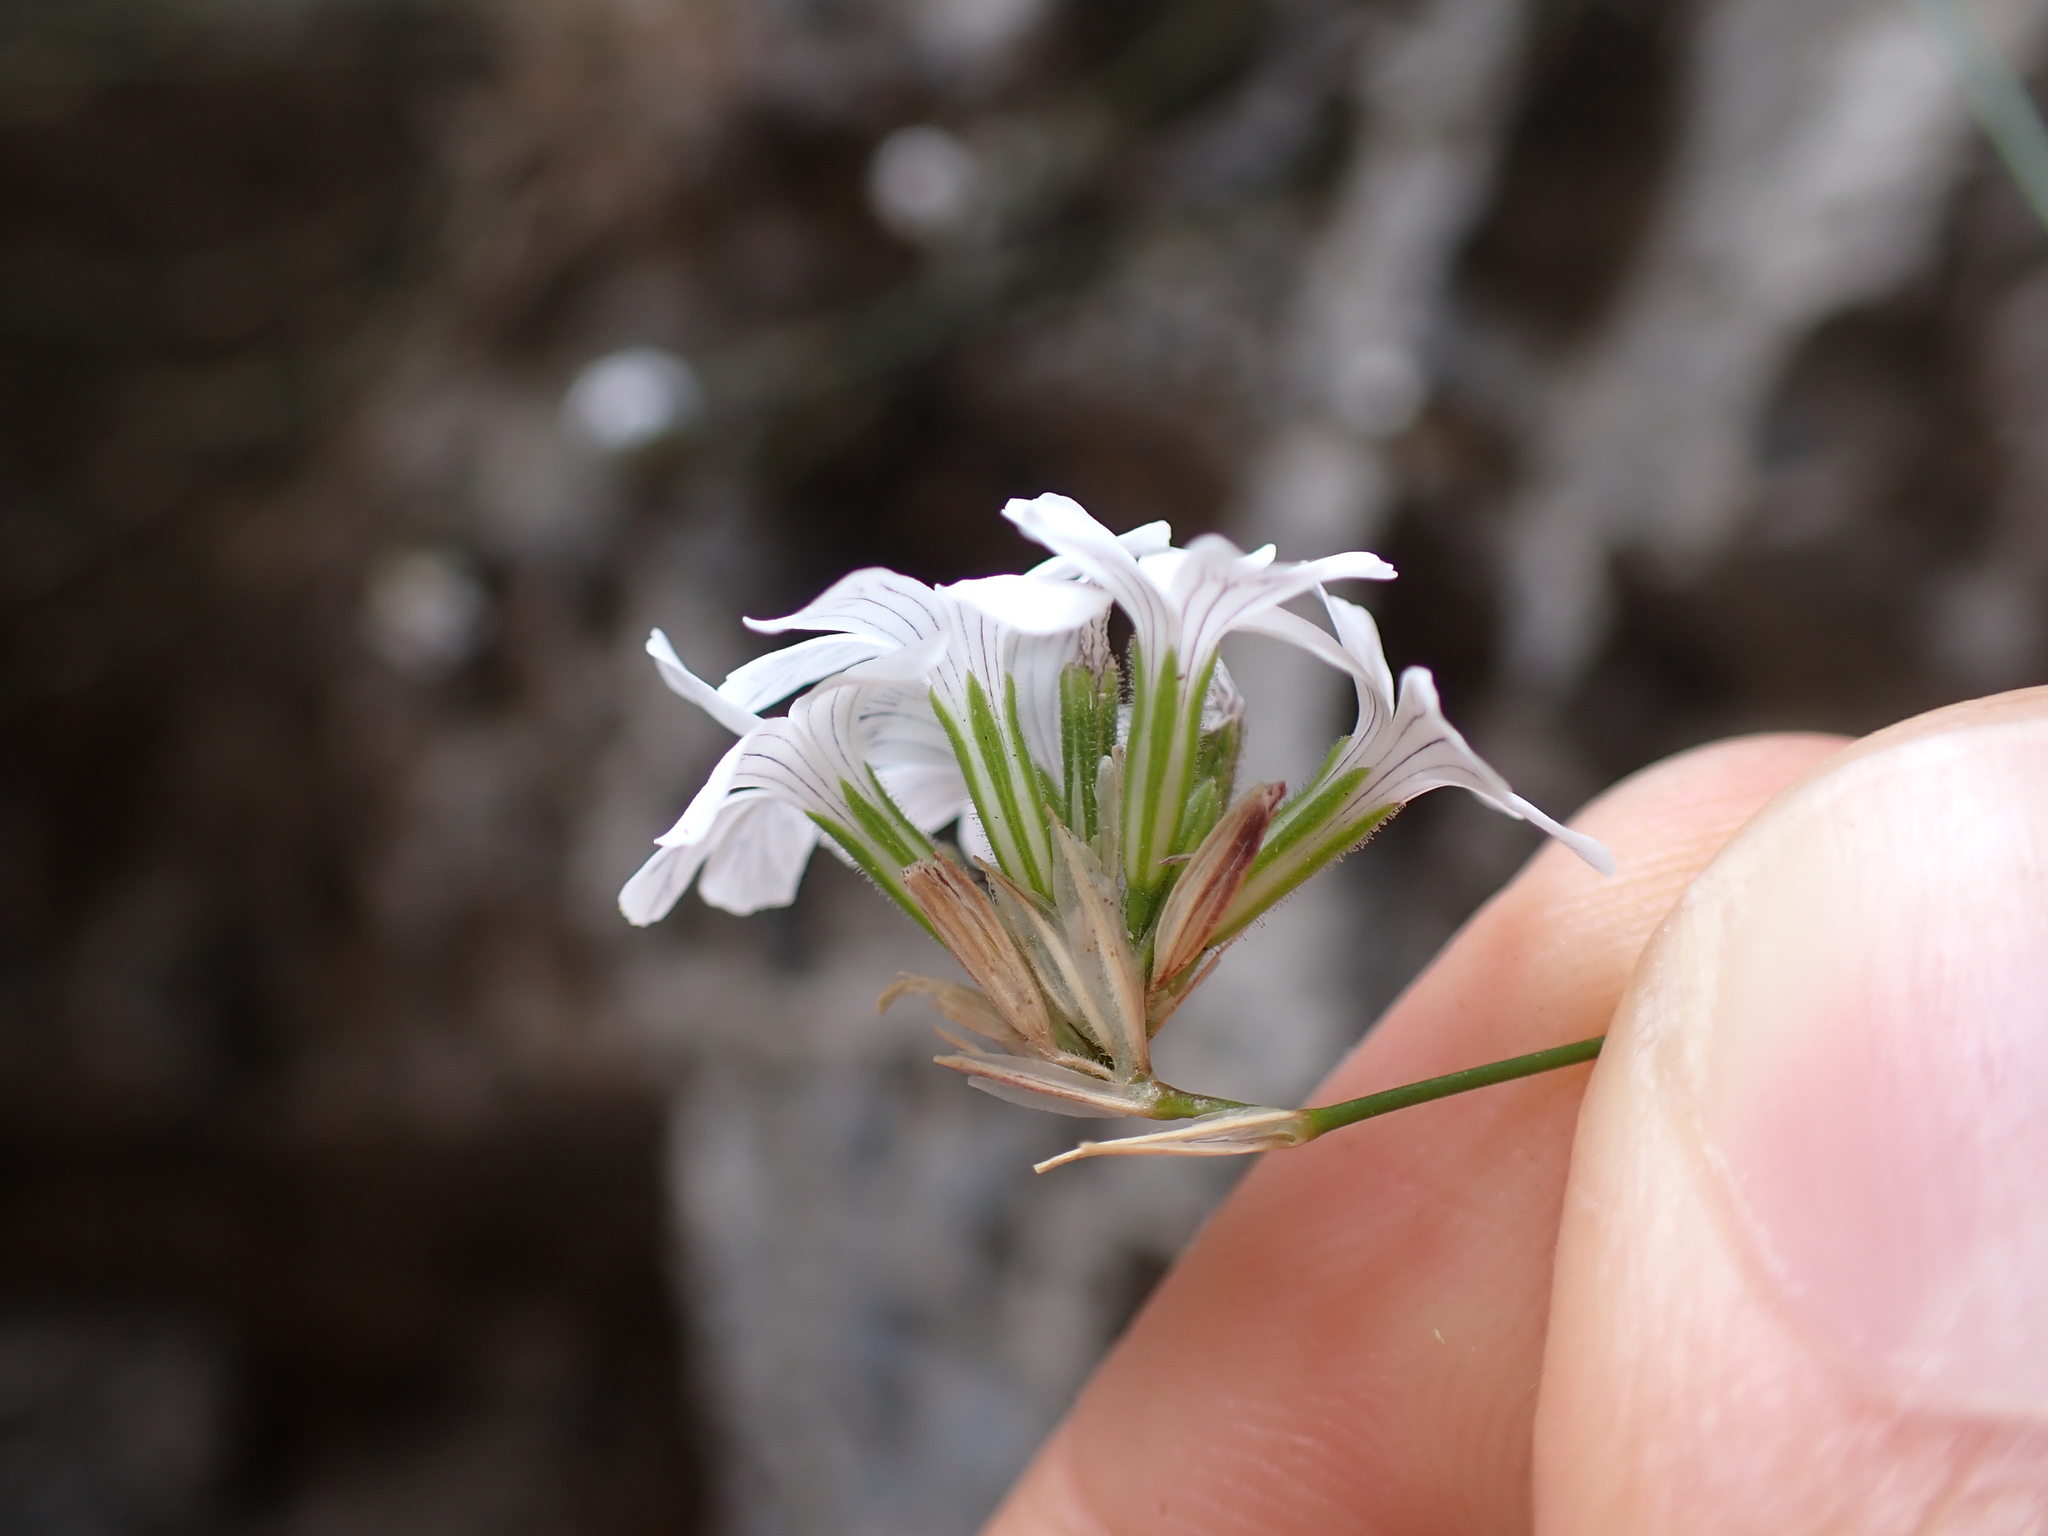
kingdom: Plantae
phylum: Tracheophyta
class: Magnoliopsida
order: Caryophyllales
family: Caryophyllaceae
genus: Petrorhagia
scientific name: Petrorhagia dianthoides
